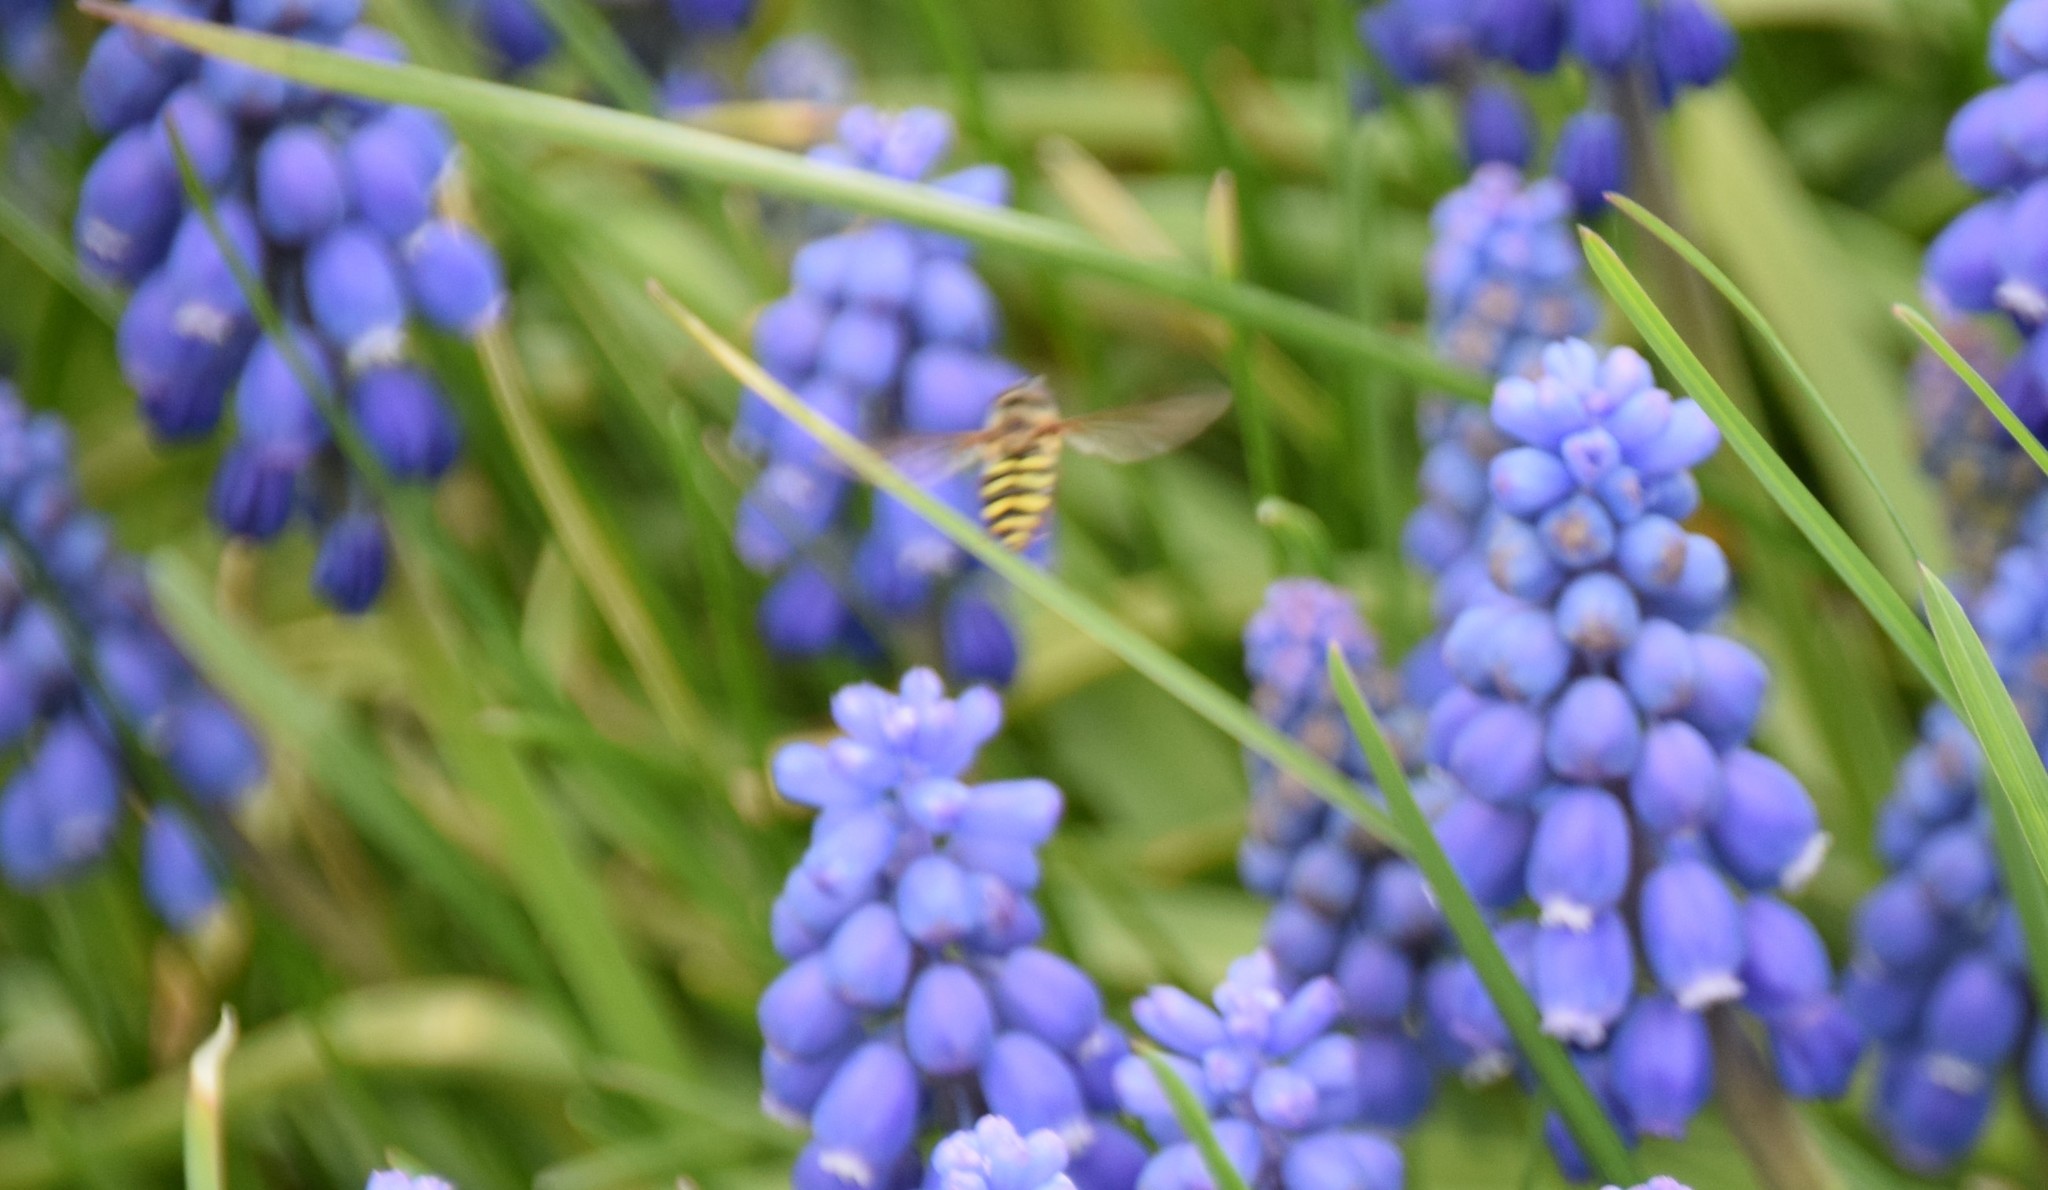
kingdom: Animalia
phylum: Arthropoda
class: Insecta
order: Hymenoptera
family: Apidae
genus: Apis
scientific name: Apis mellifera
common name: Honey bee
